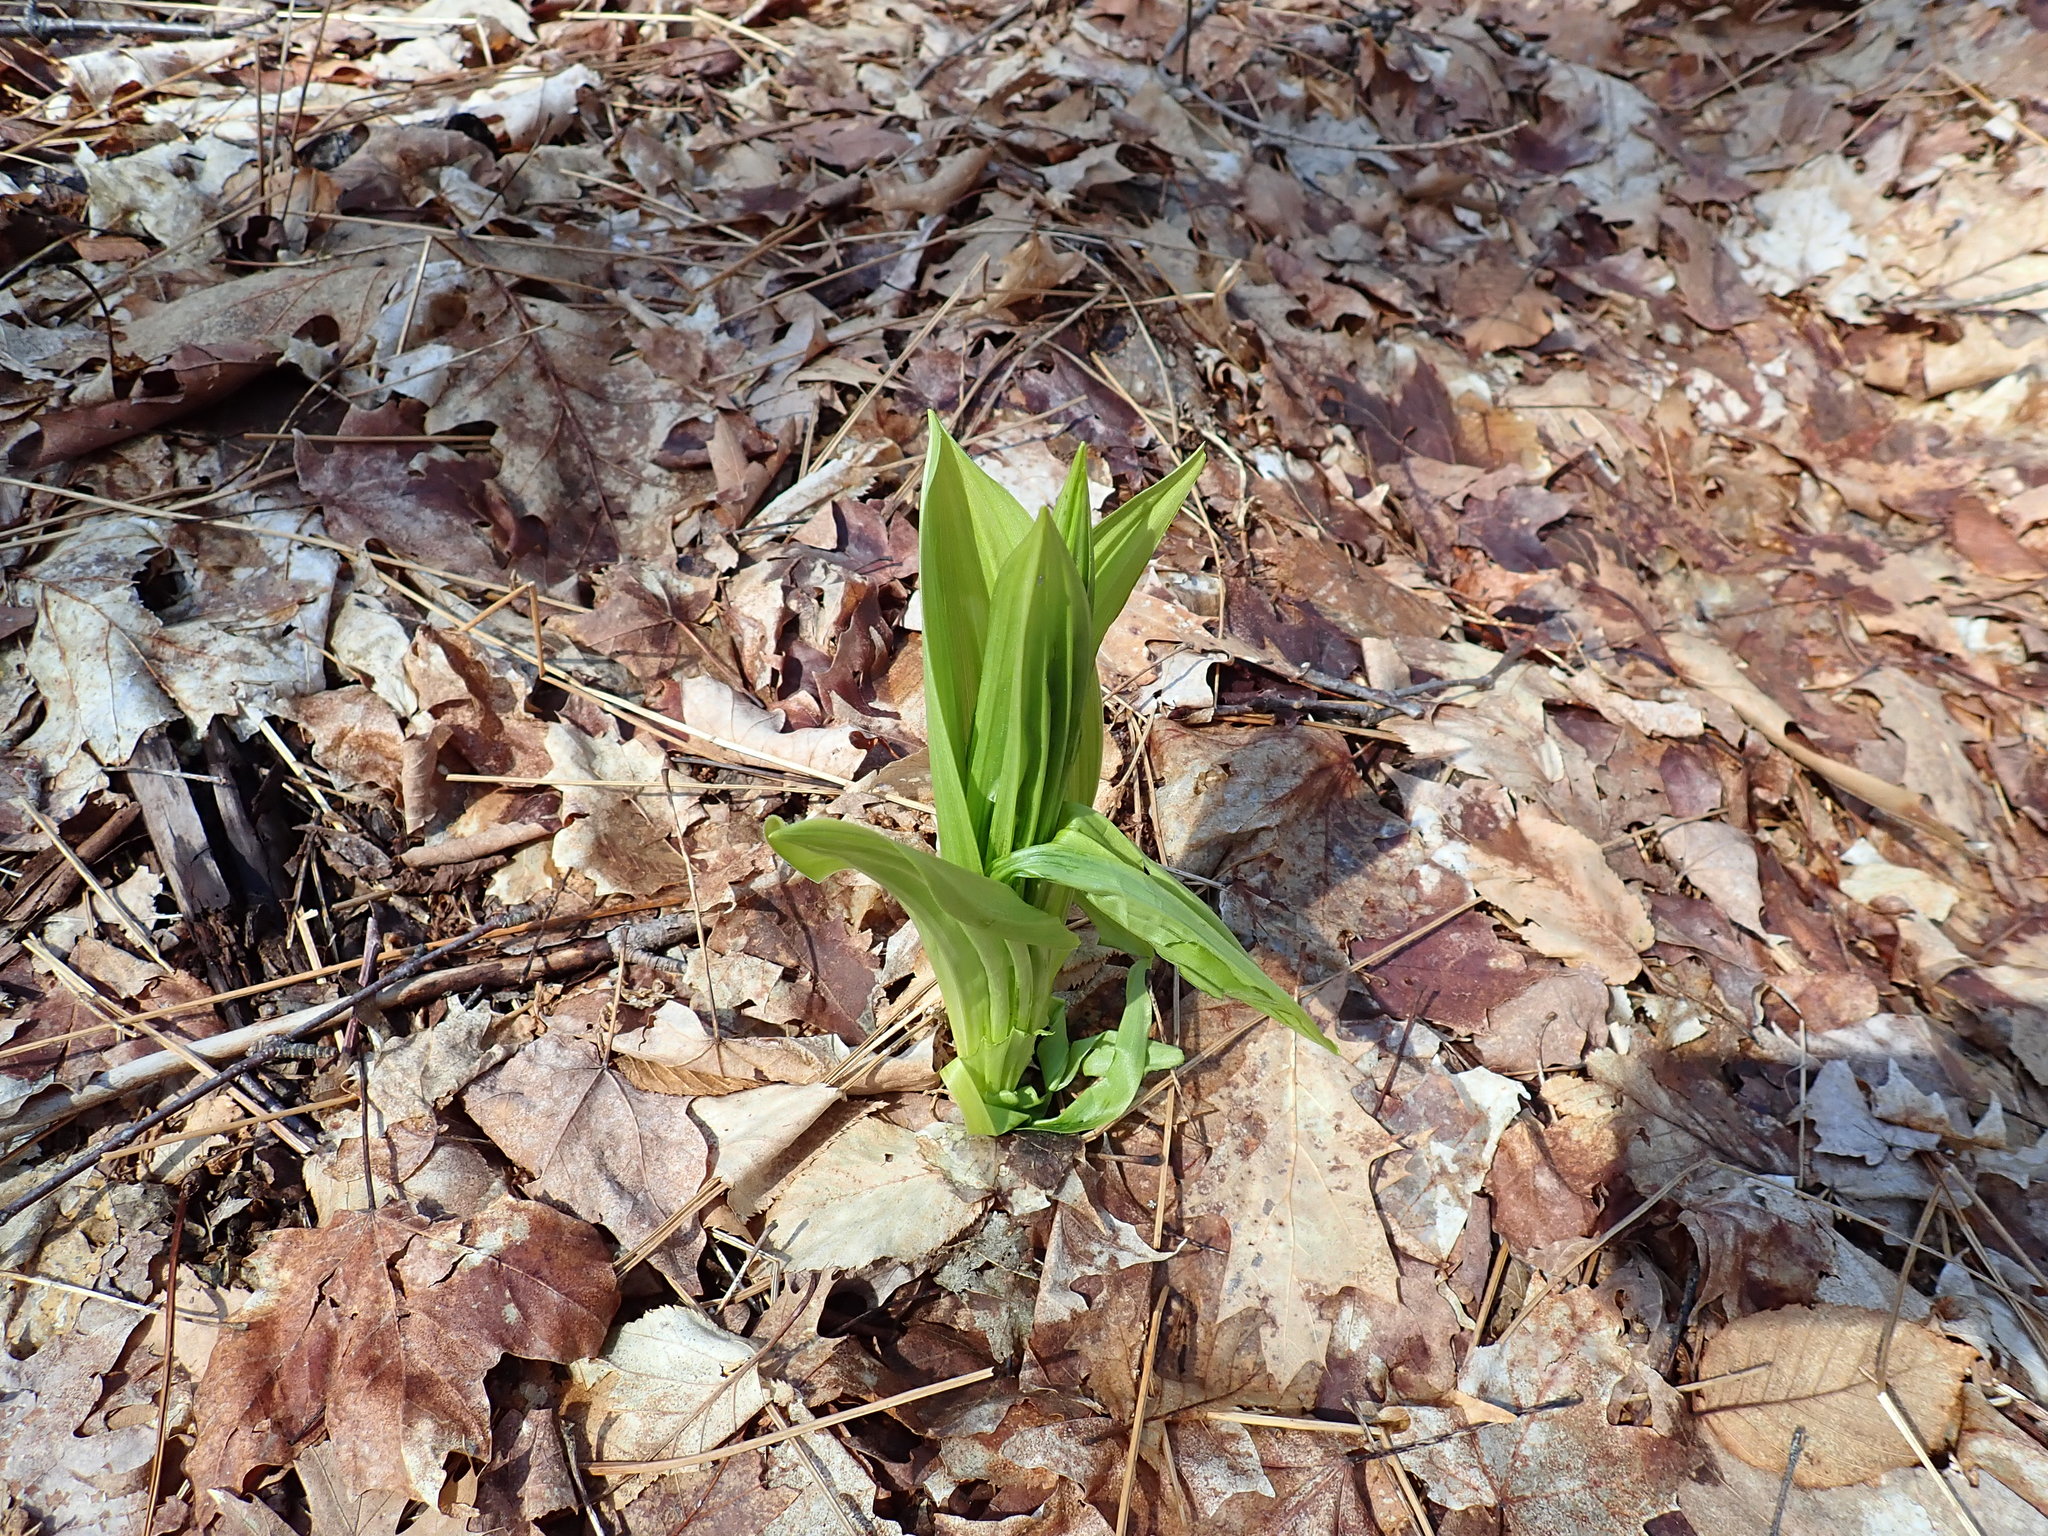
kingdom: Plantae
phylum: Tracheophyta
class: Liliopsida
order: Liliales
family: Melanthiaceae
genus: Veratrum
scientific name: Veratrum viride
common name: American false hellebore
